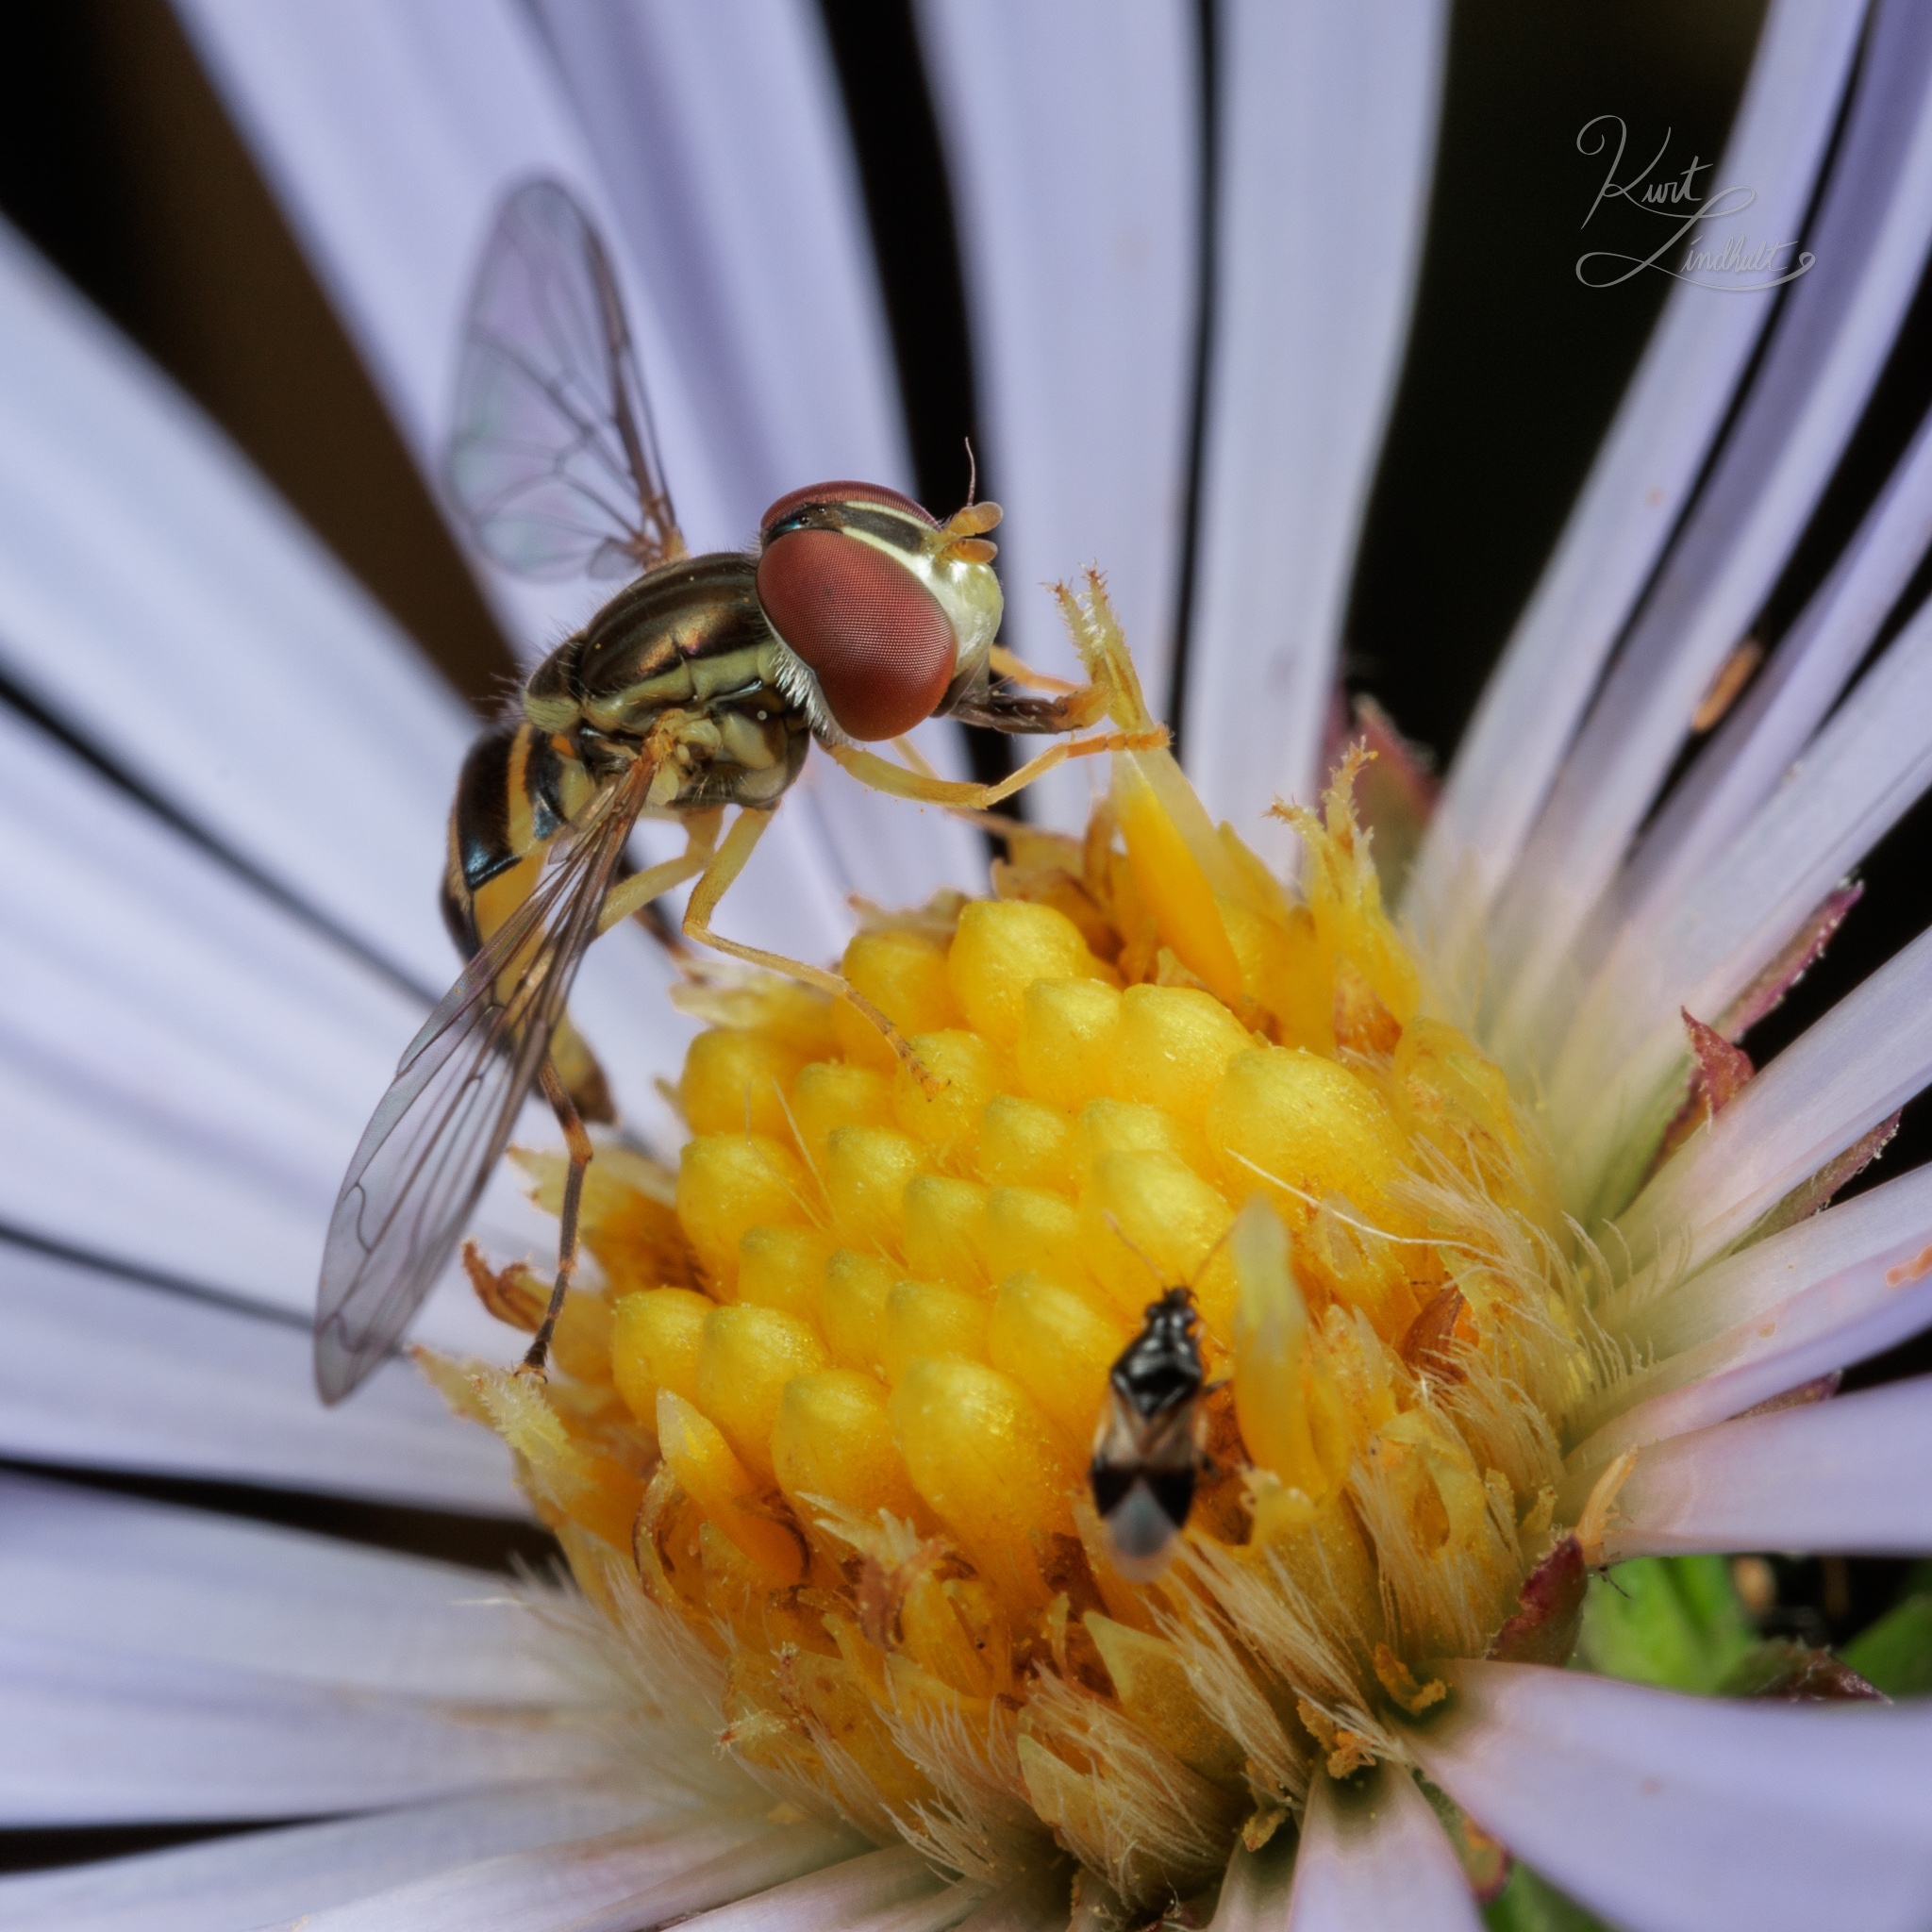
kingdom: Animalia
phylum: Arthropoda
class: Insecta
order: Diptera
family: Syrphidae
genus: Toxomerus
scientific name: Toxomerus geminatus
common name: Eastern calligrapher
